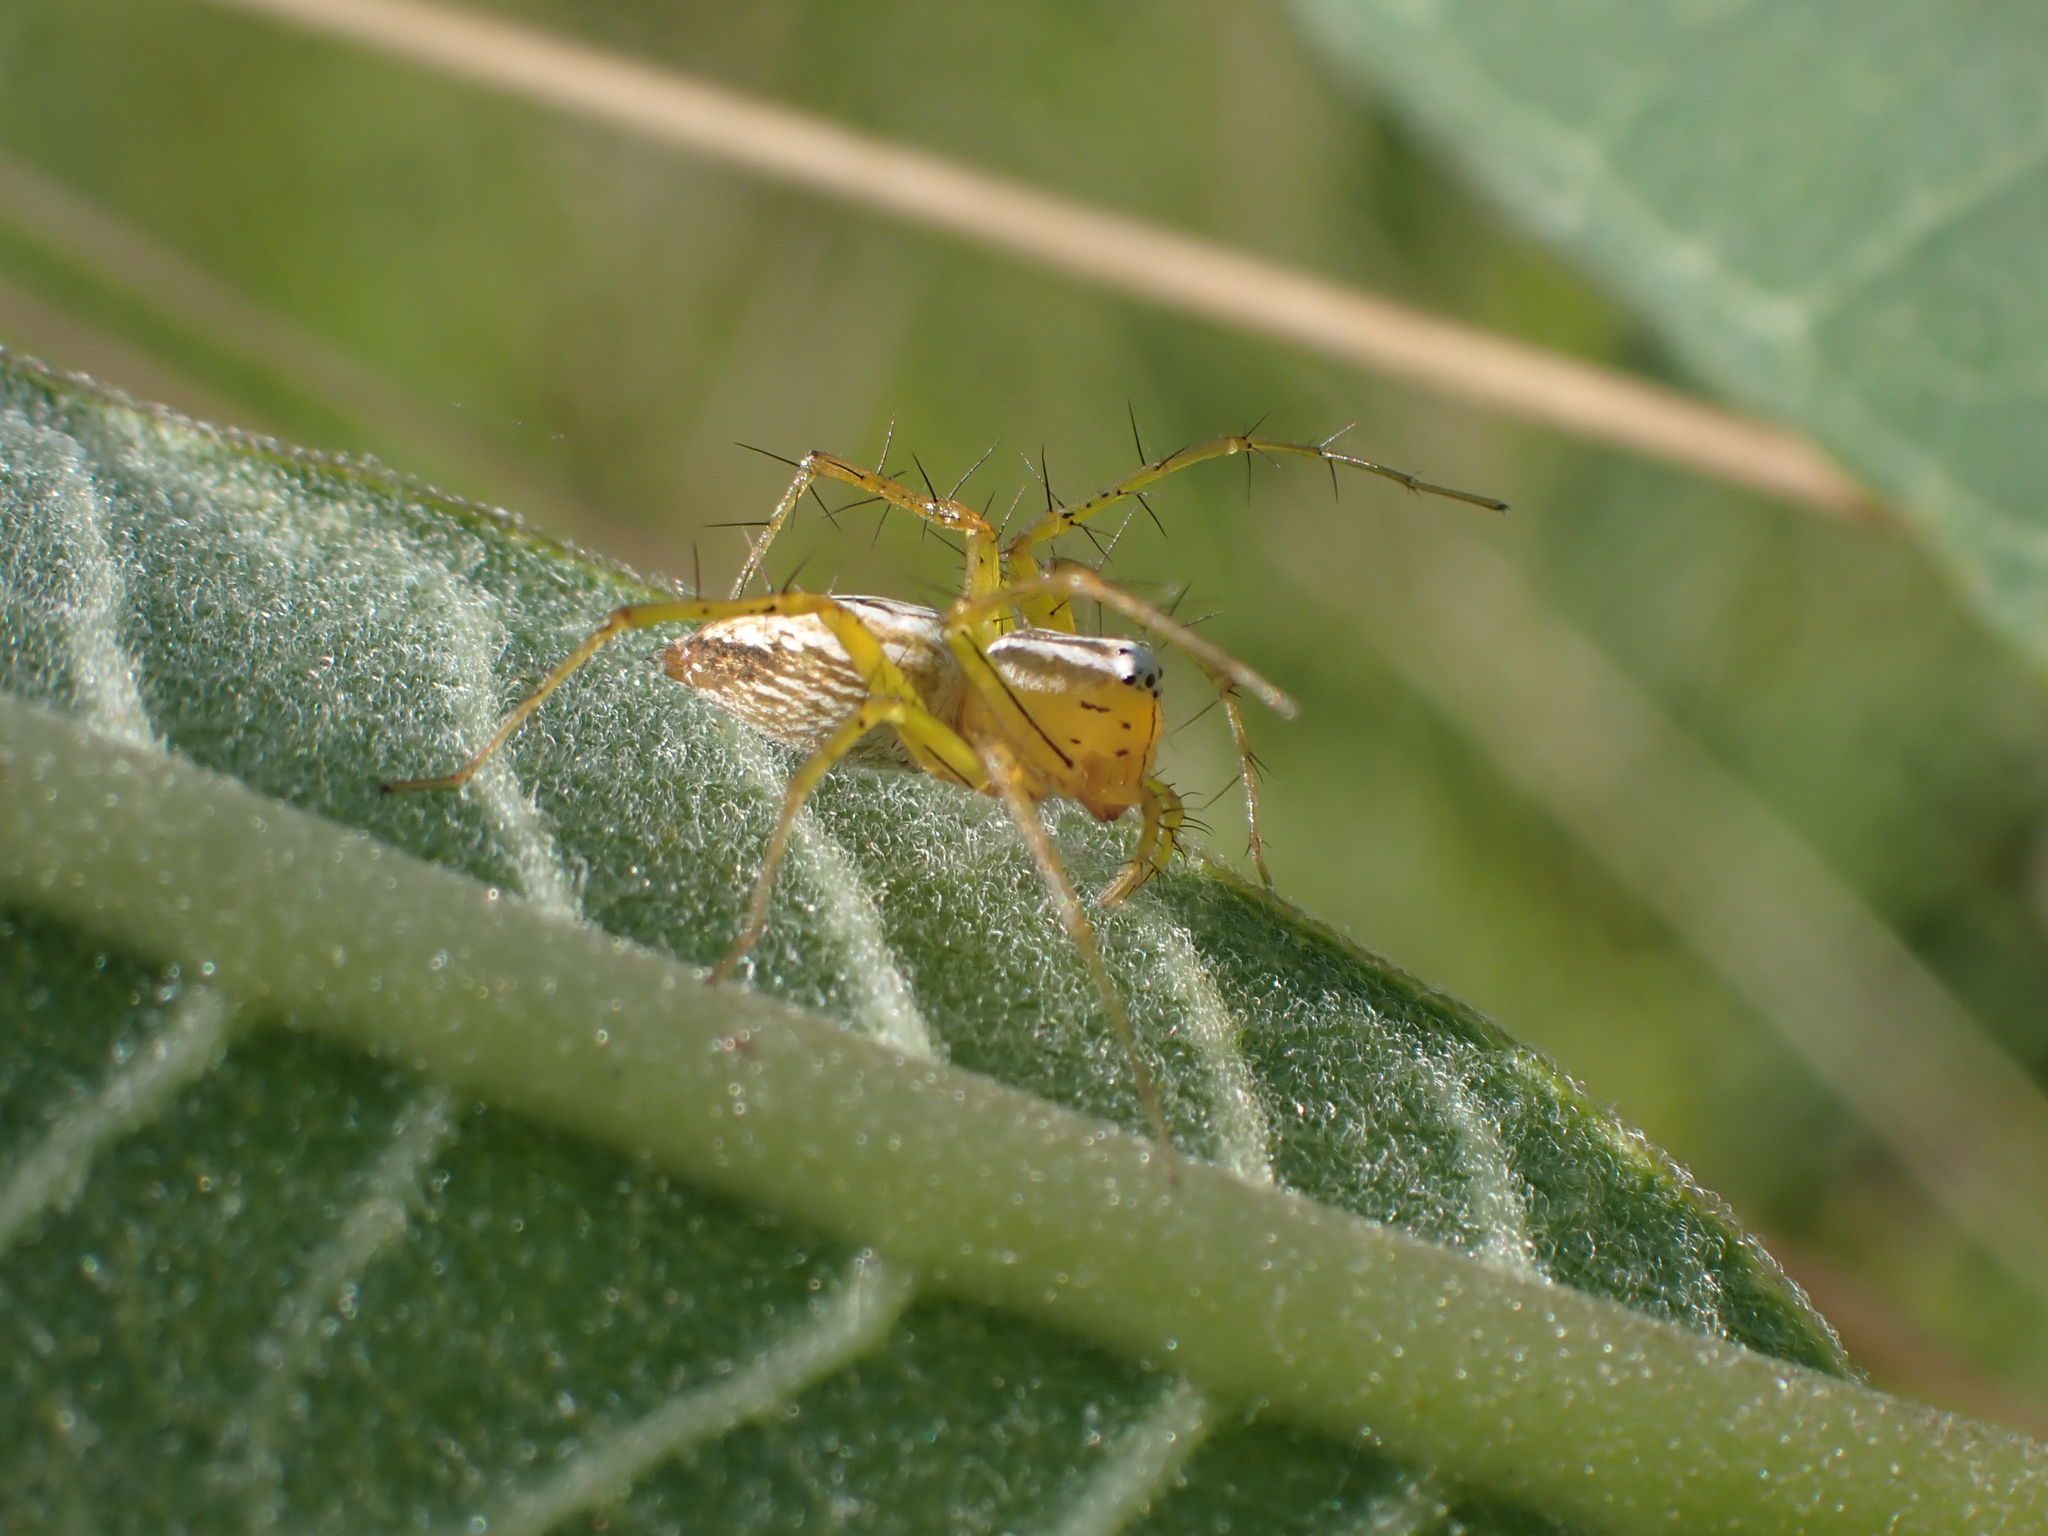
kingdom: Animalia
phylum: Arthropoda
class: Arachnida
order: Araneae
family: Oxyopidae
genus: Oxyopes
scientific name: Oxyopes salticus
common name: Lynx spiders
